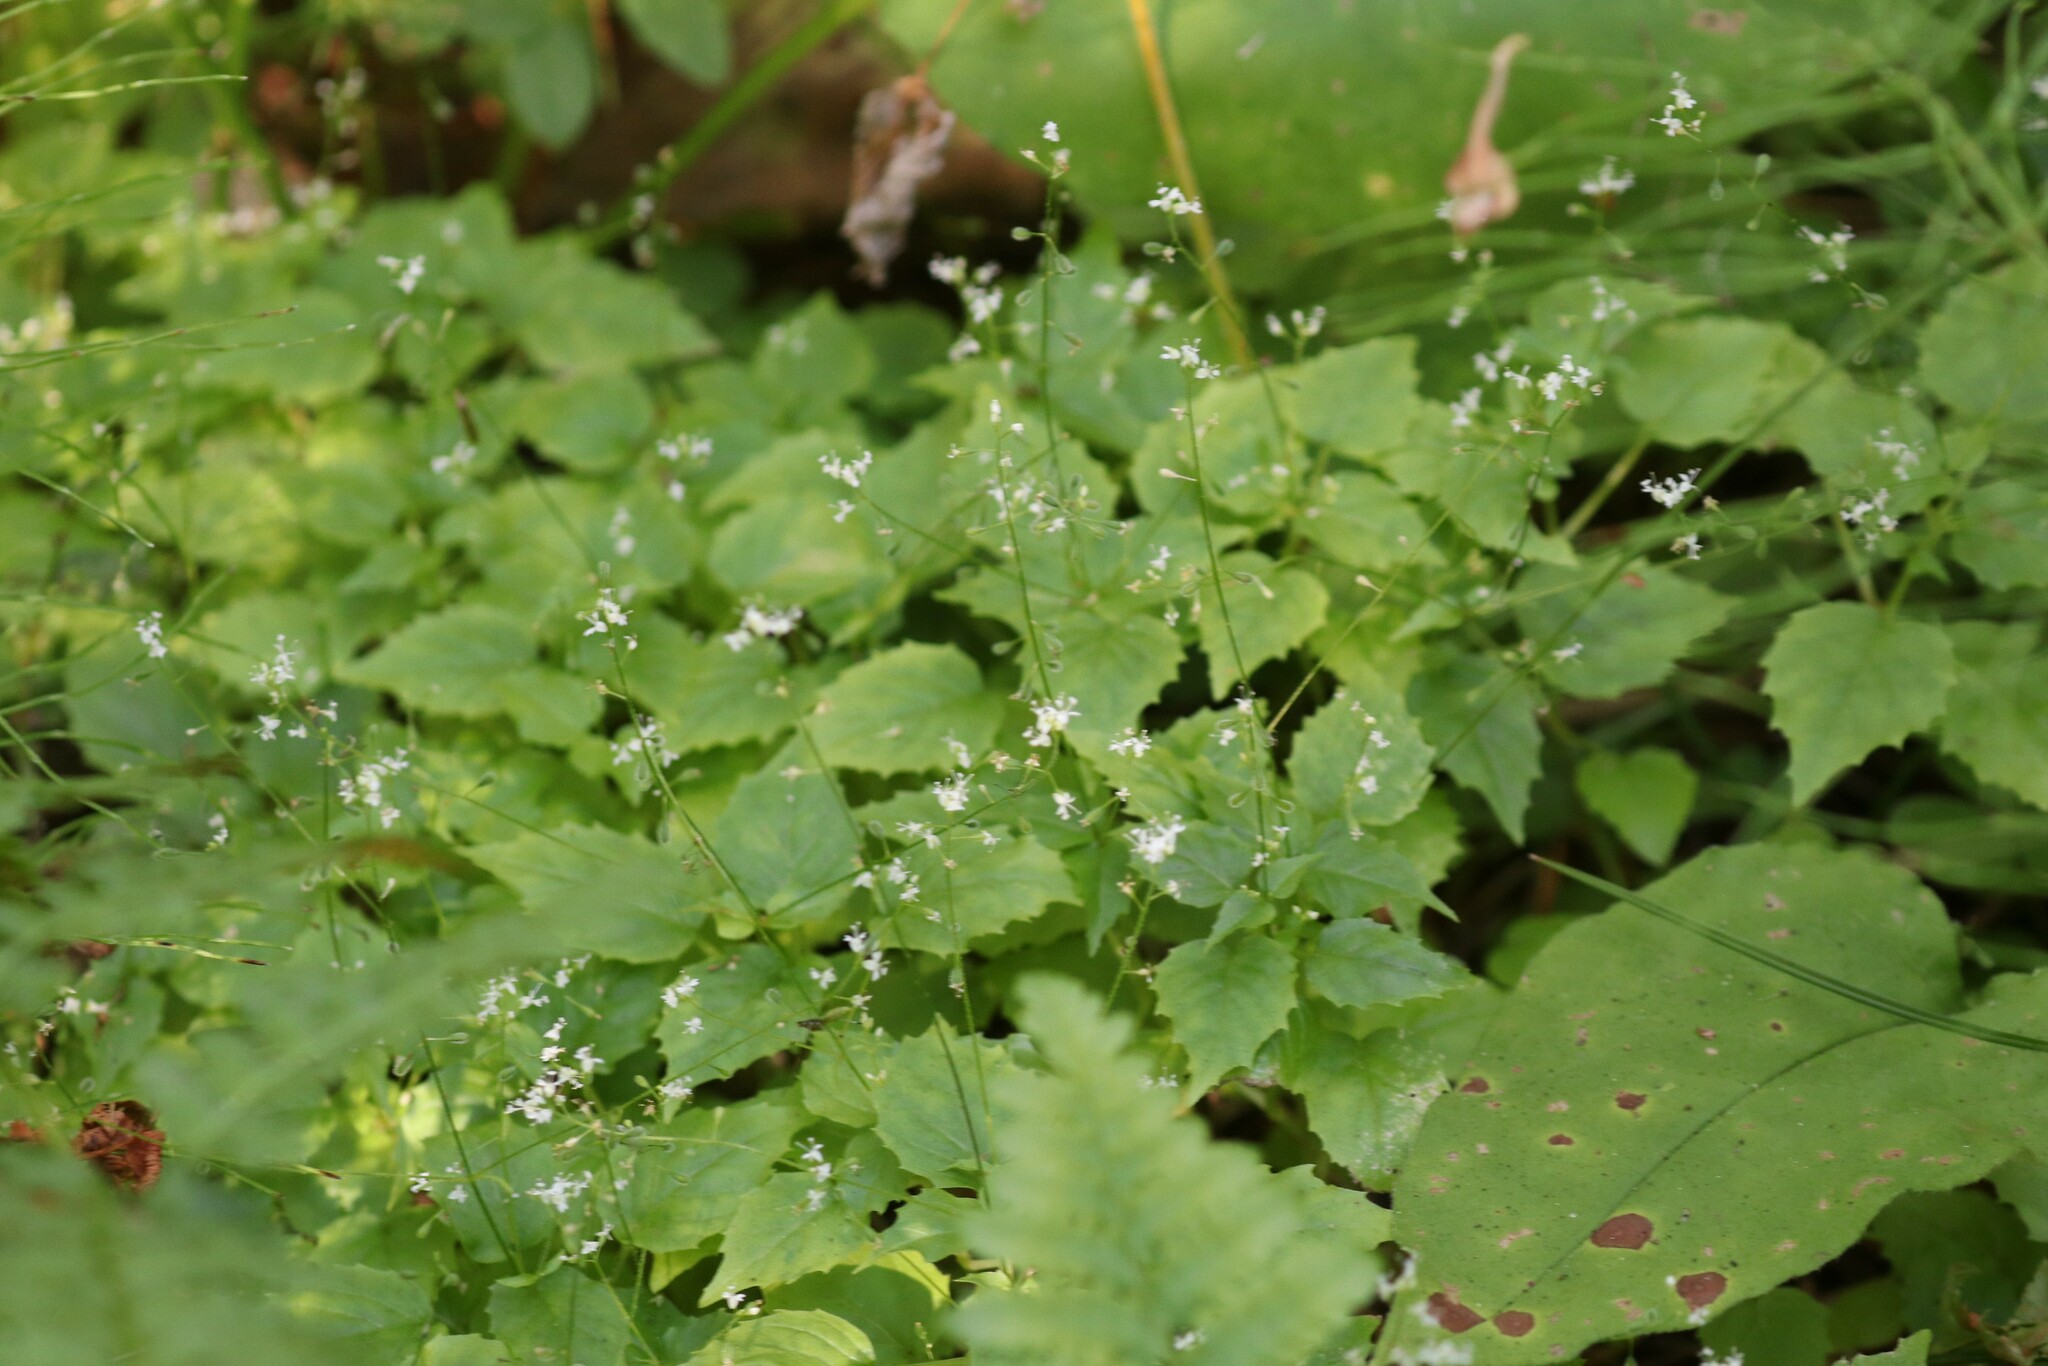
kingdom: Plantae
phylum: Tracheophyta
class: Magnoliopsida
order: Myrtales
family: Onagraceae
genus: Circaea
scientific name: Circaea alpina
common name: Alpine enchanter's-nightshade
